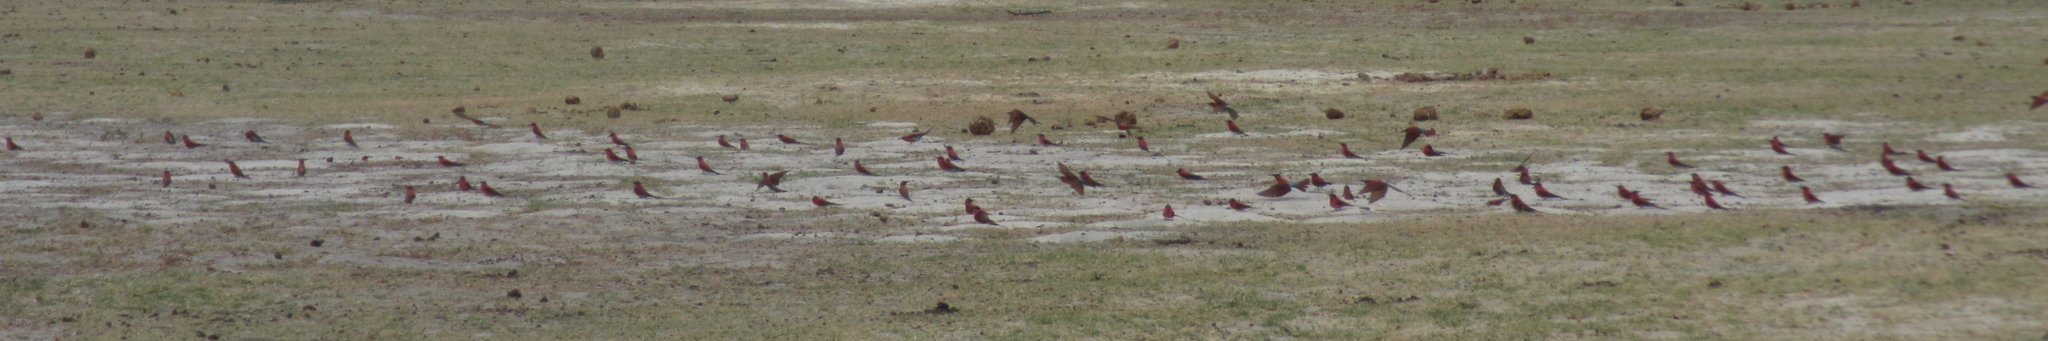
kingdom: Animalia
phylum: Chordata
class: Aves
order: Coraciiformes
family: Meropidae
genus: Merops
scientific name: Merops nubicoides
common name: Southern carmine bee-eater
